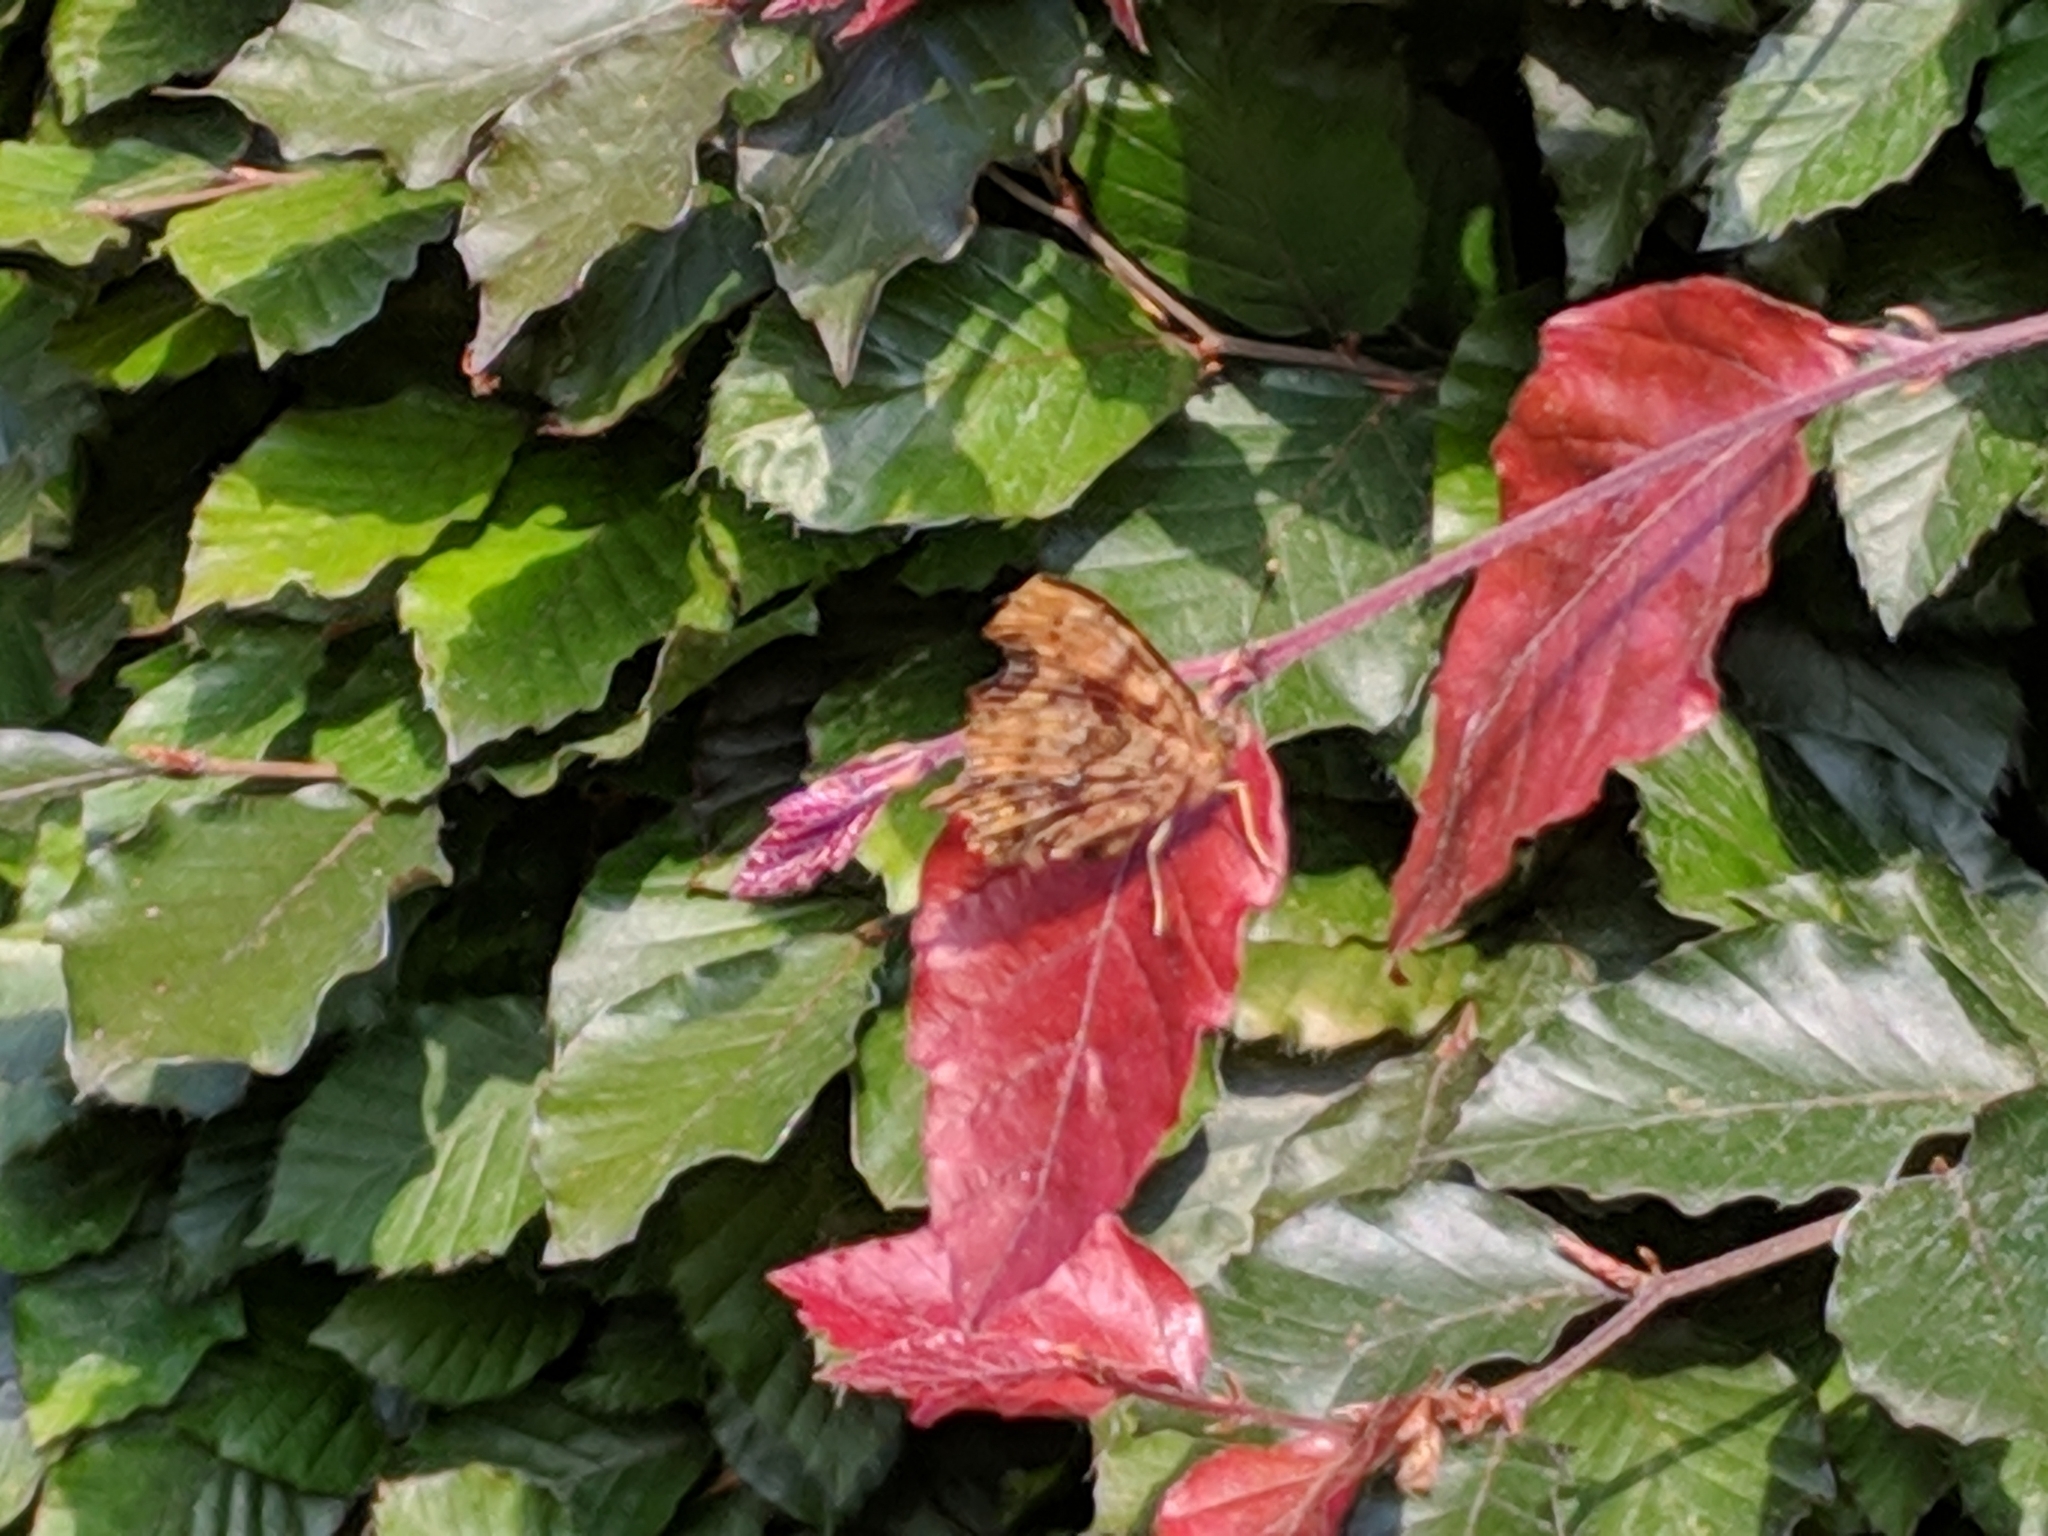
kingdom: Animalia
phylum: Arthropoda
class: Insecta
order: Lepidoptera
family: Nymphalidae
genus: Polygonia
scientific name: Polygonia c-album
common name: Comma
